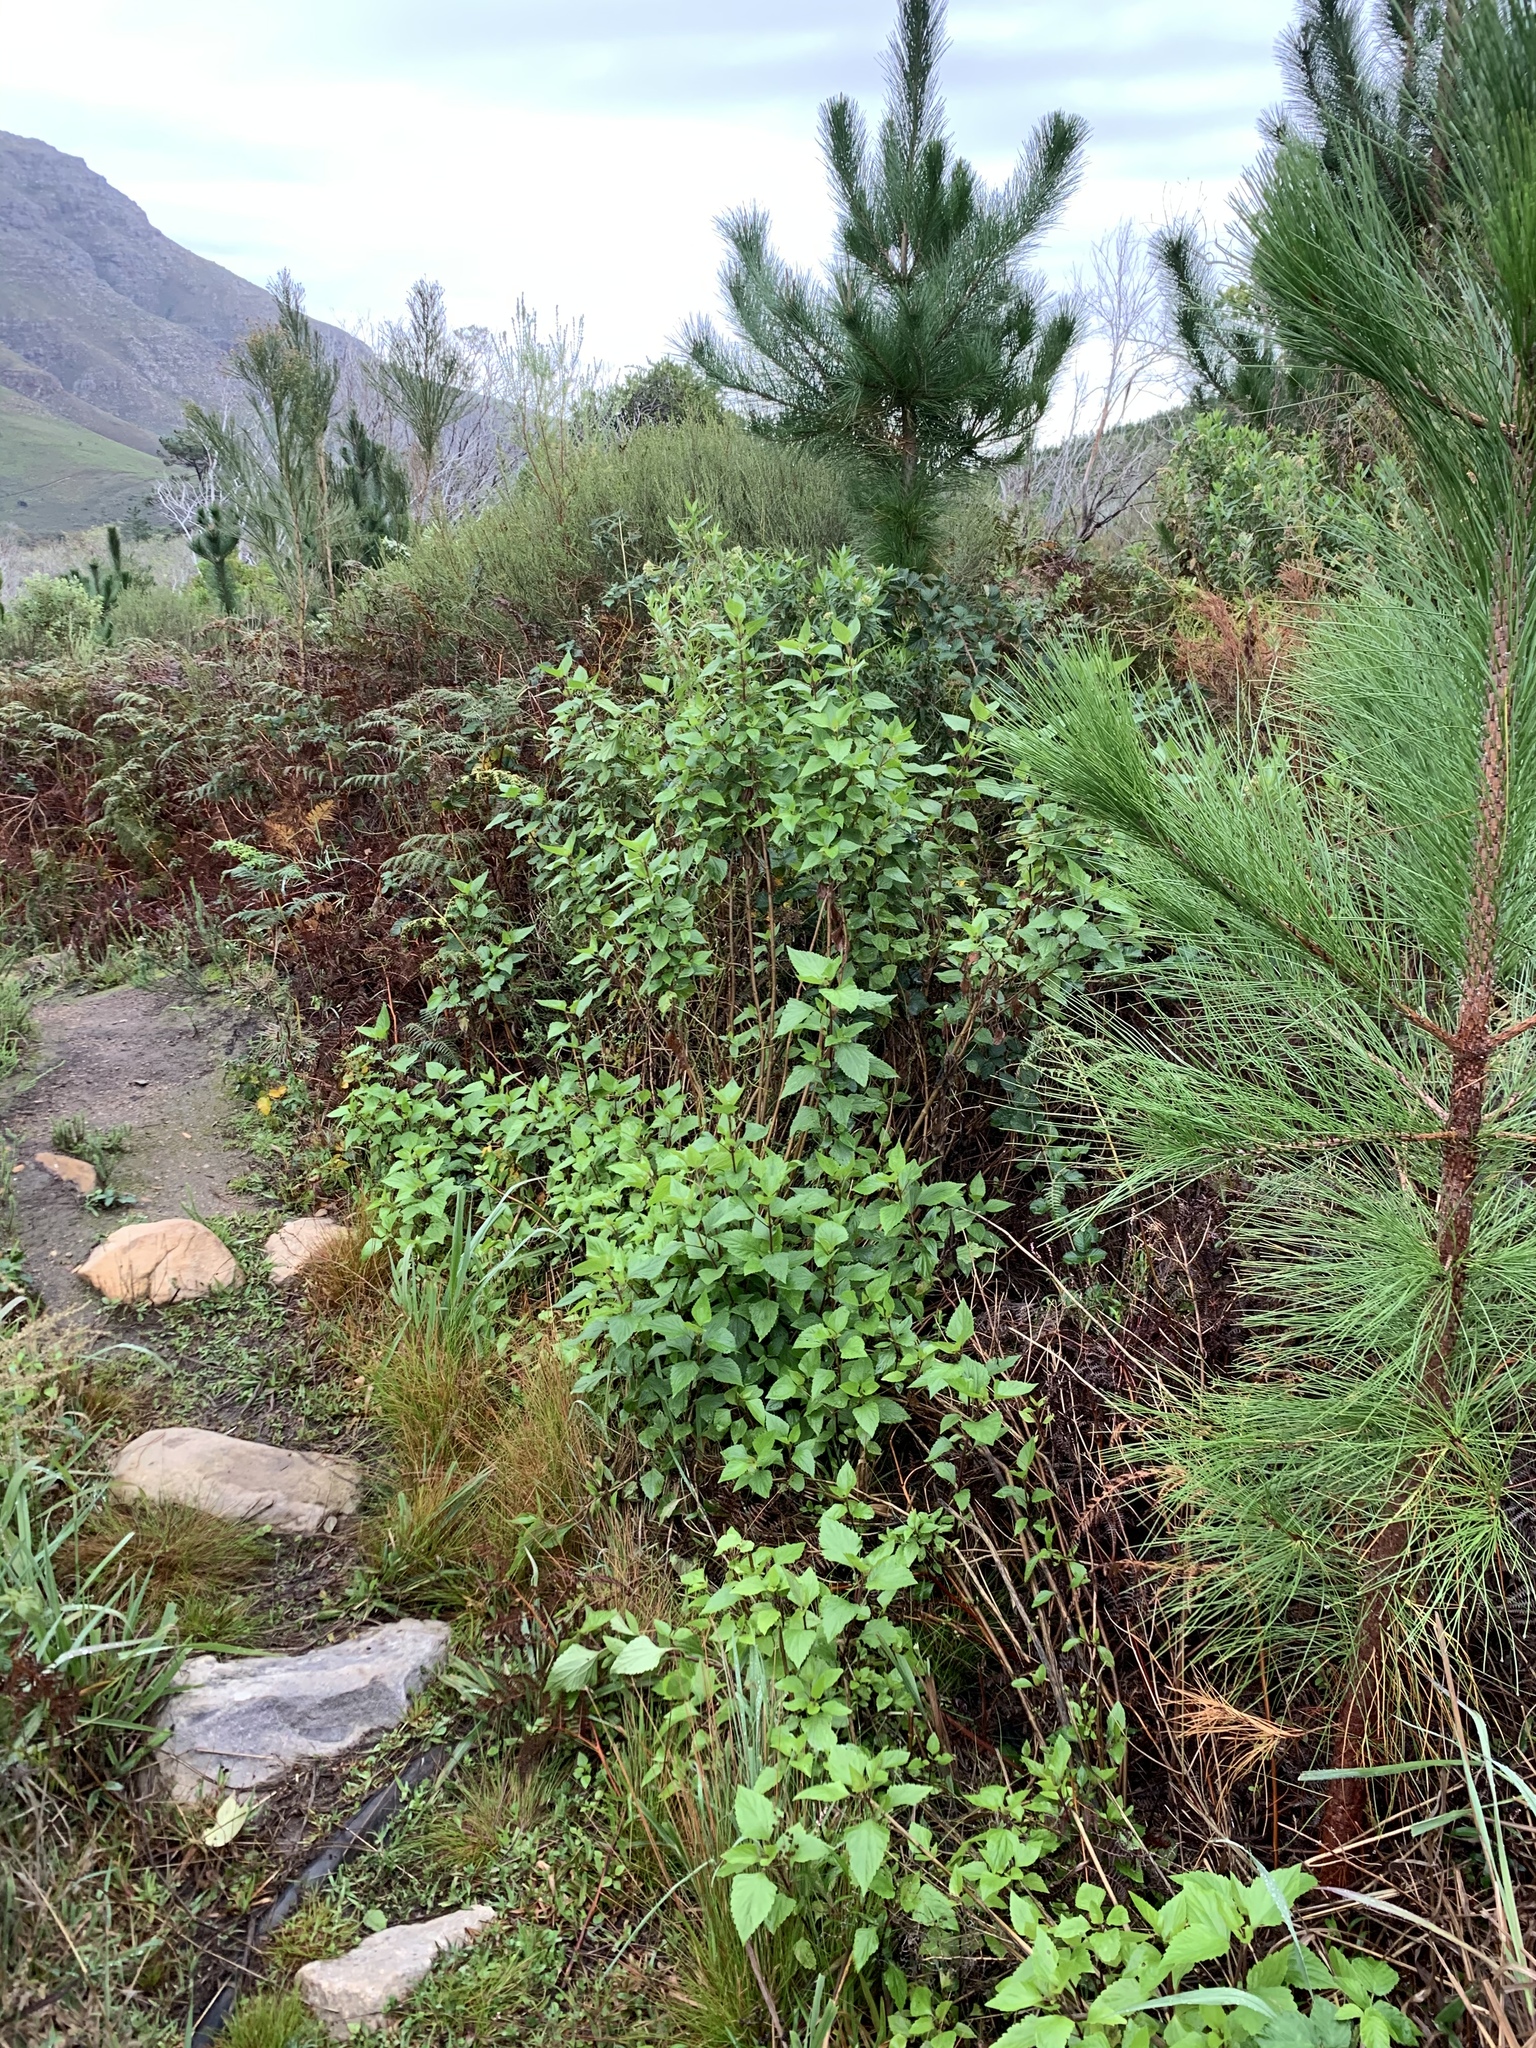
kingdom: Plantae
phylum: Tracheophyta
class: Magnoliopsida
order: Asterales
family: Asteraceae
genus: Ageratina
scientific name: Ageratina adenophora
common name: Sticky snakeroot
